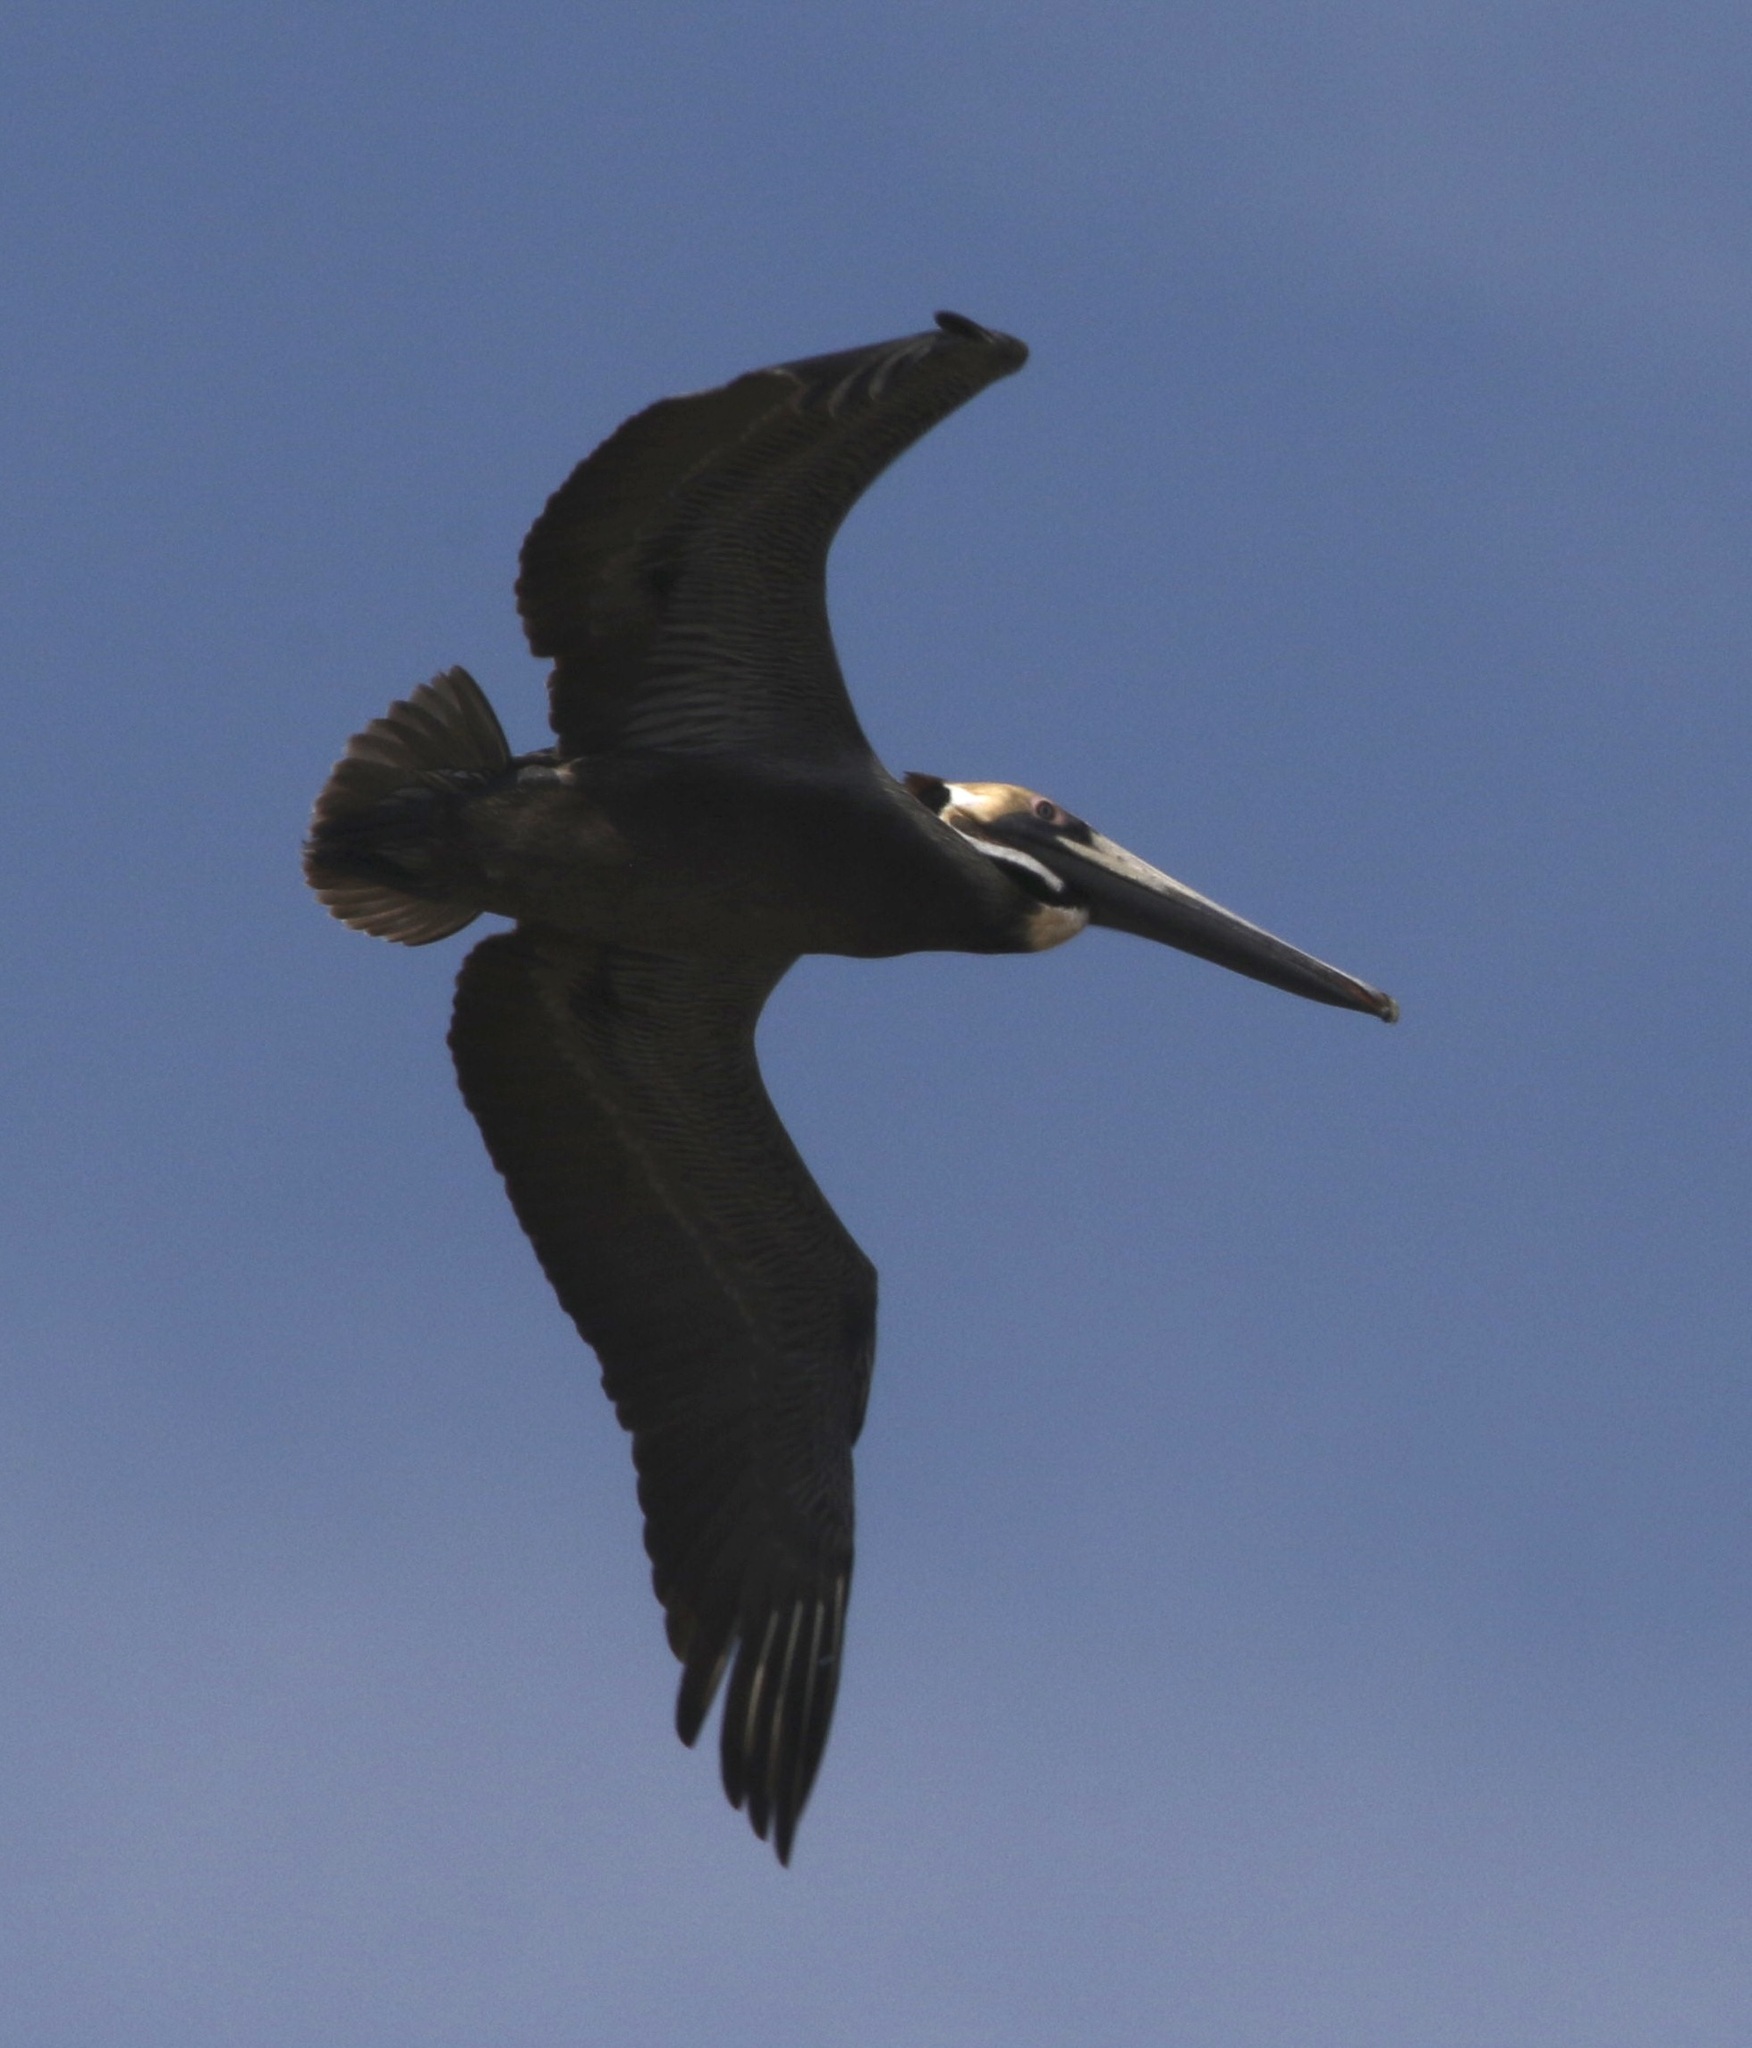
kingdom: Animalia
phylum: Chordata
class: Aves
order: Pelecaniformes
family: Pelecanidae
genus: Pelecanus
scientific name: Pelecanus occidentalis
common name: Brown pelican
